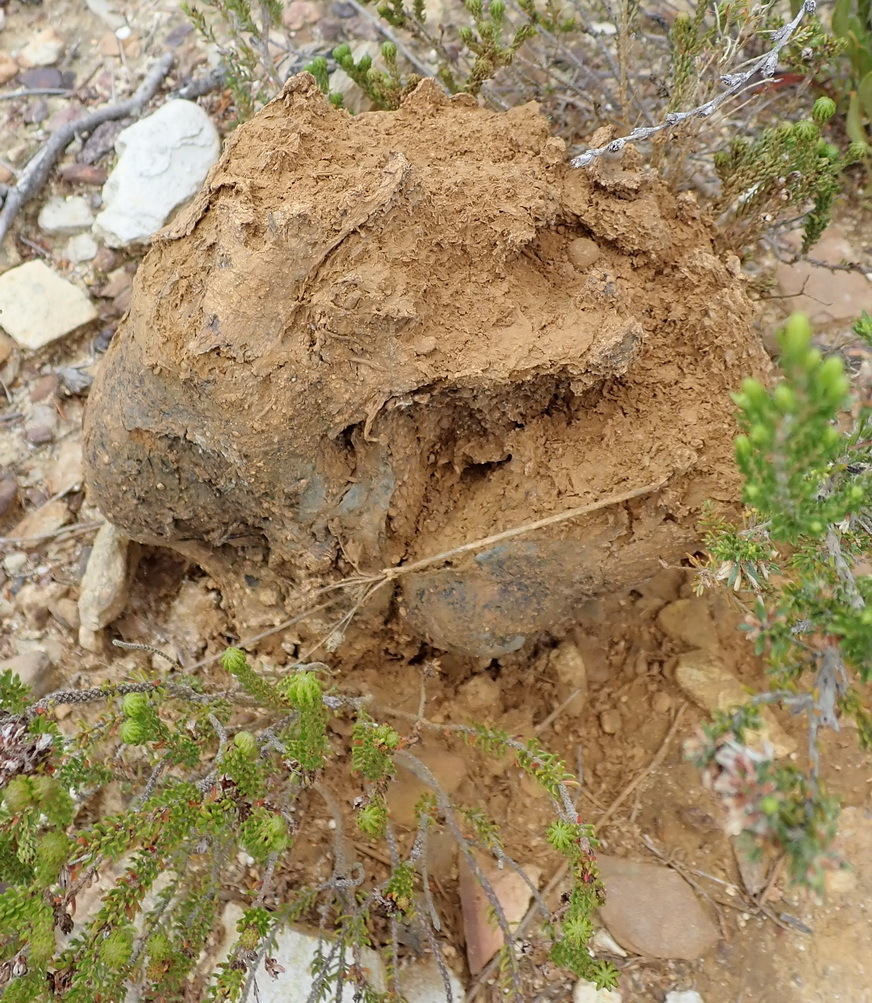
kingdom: Fungi
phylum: Basidiomycota
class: Agaricomycetes
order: Boletales
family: Sclerodermataceae
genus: Pisolithus
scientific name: Pisolithus arhizus
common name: Dyeball
